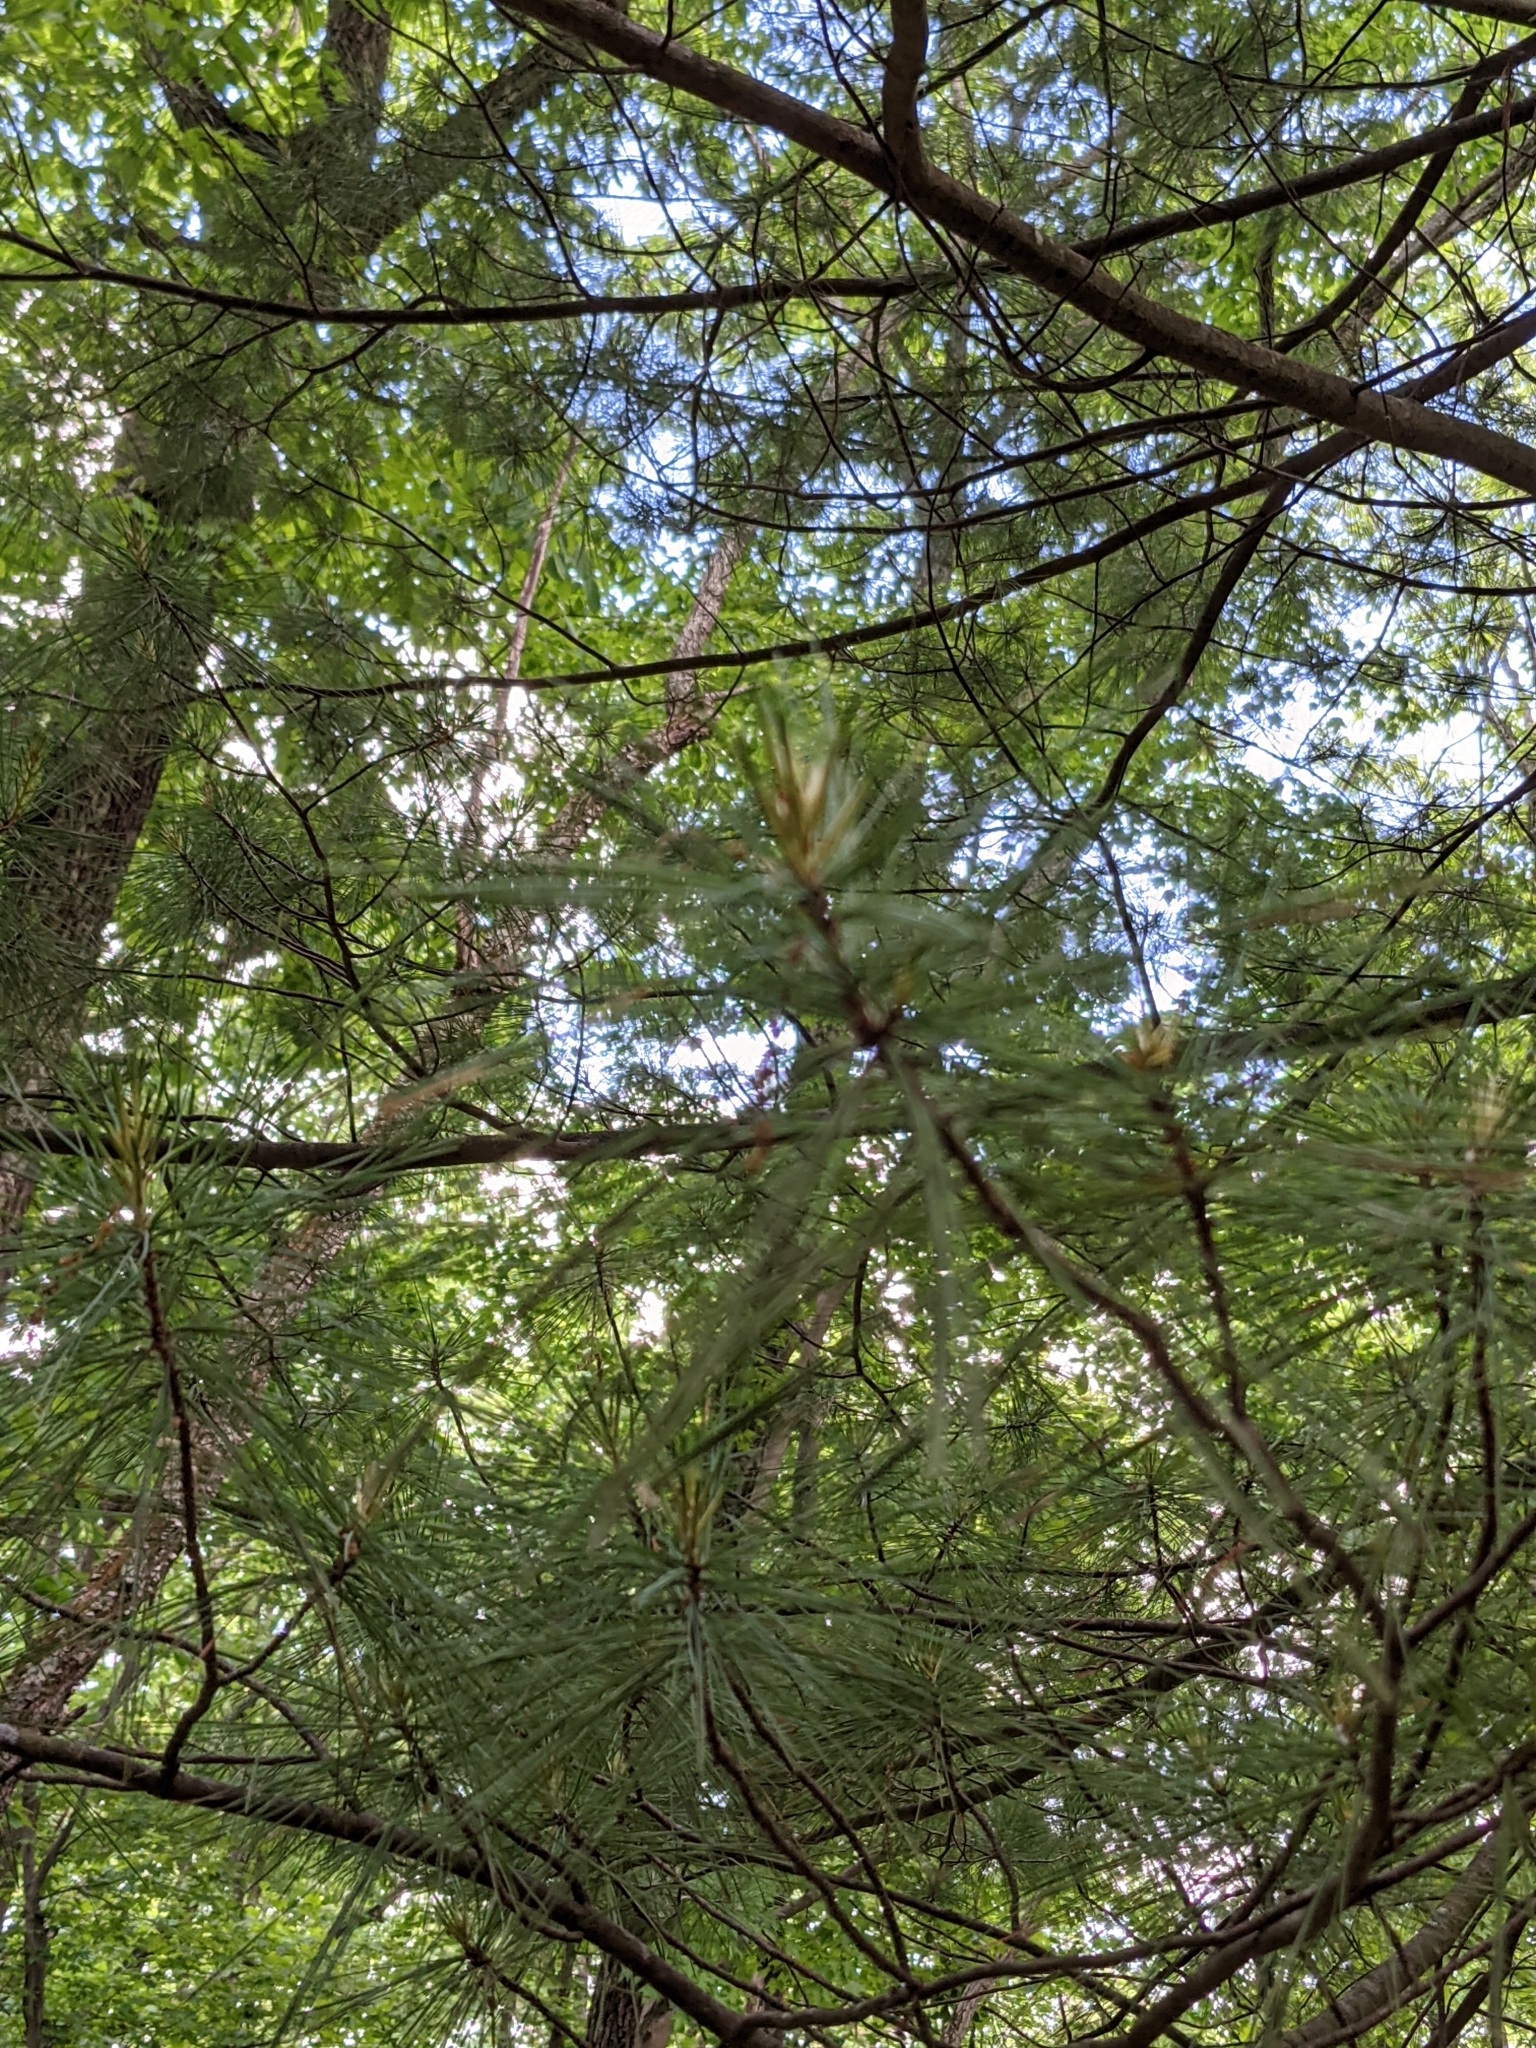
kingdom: Plantae
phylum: Tracheophyta
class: Pinopsida
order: Pinales
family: Pinaceae
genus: Pinus
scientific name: Pinus strobus
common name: Weymouth pine
